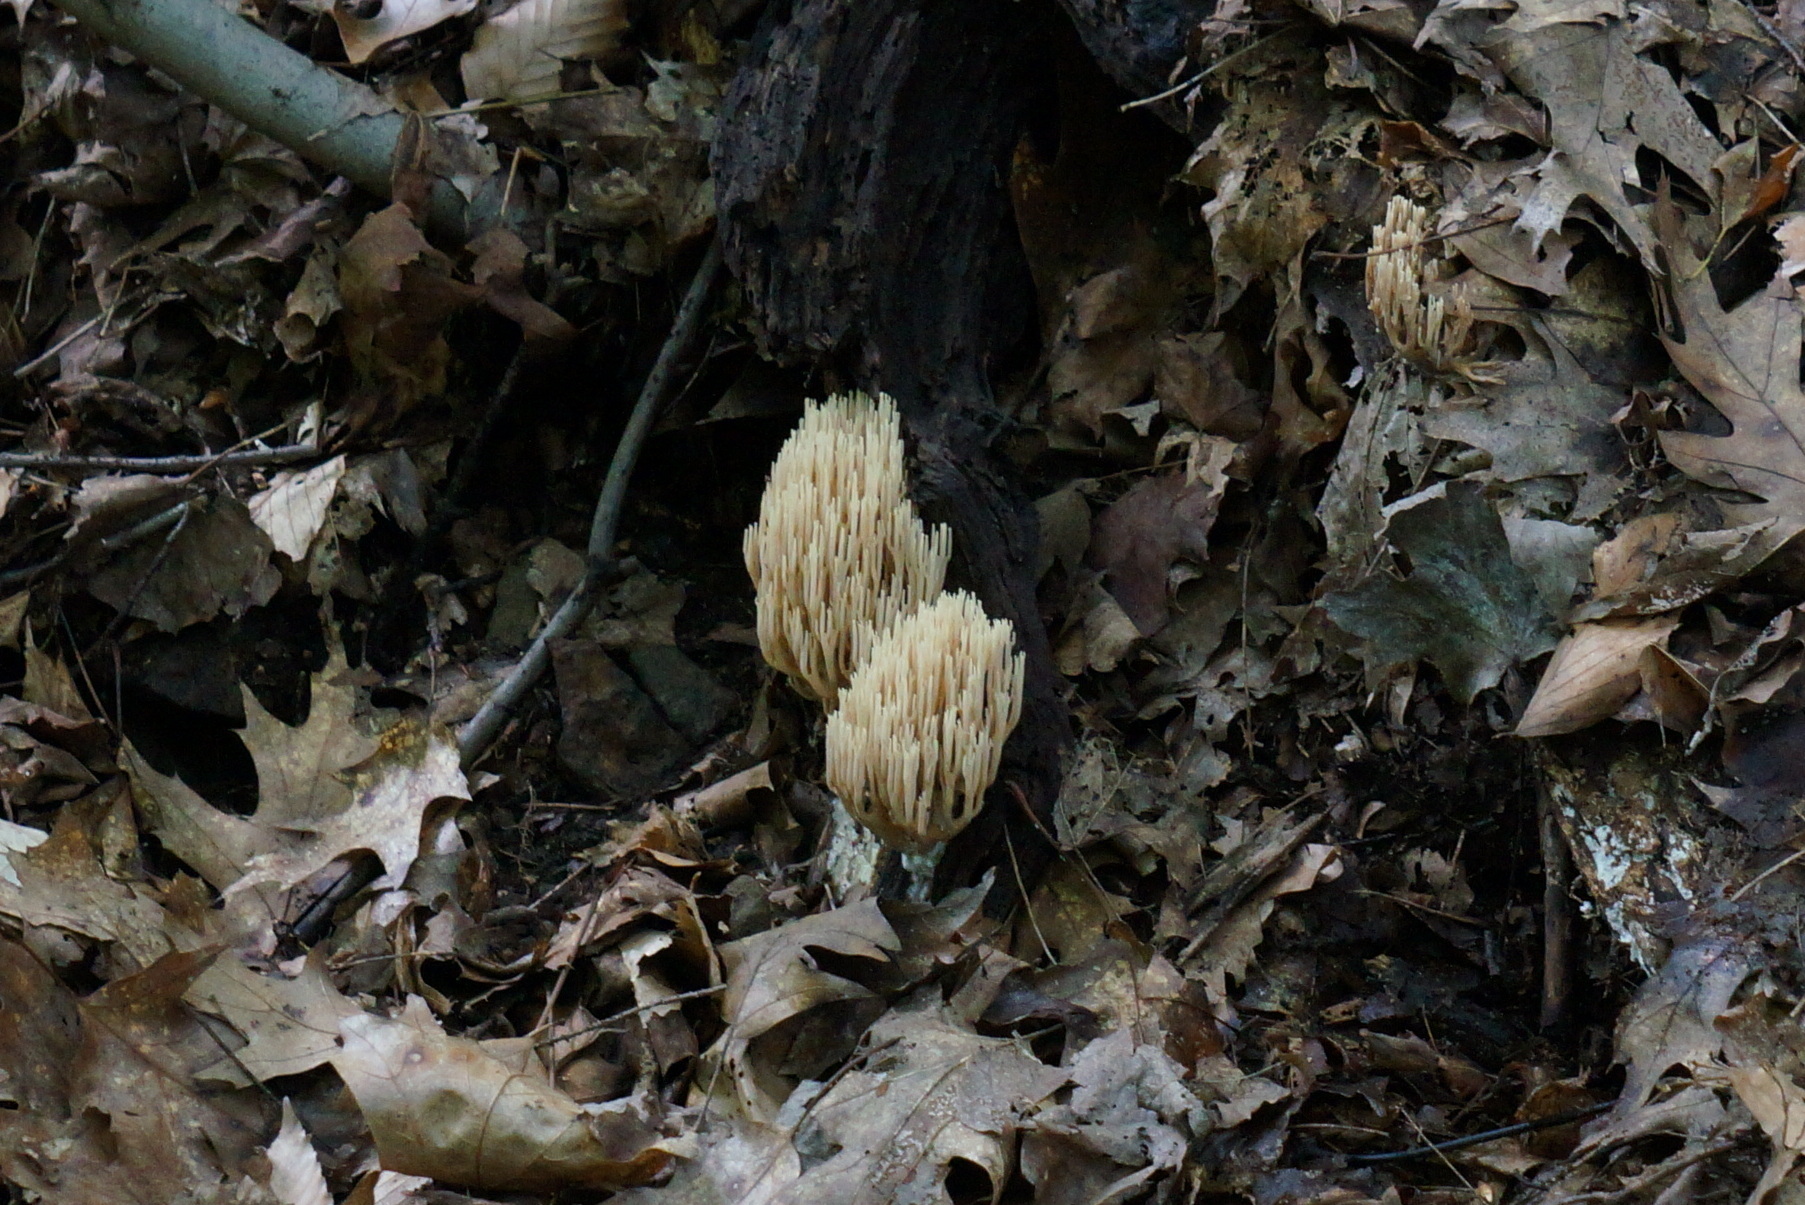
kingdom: Fungi
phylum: Basidiomycota
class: Agaricomycetes
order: Gomphales
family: Gomphaceae
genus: Ramaria
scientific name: Ramaria stricta
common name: Upright coral
